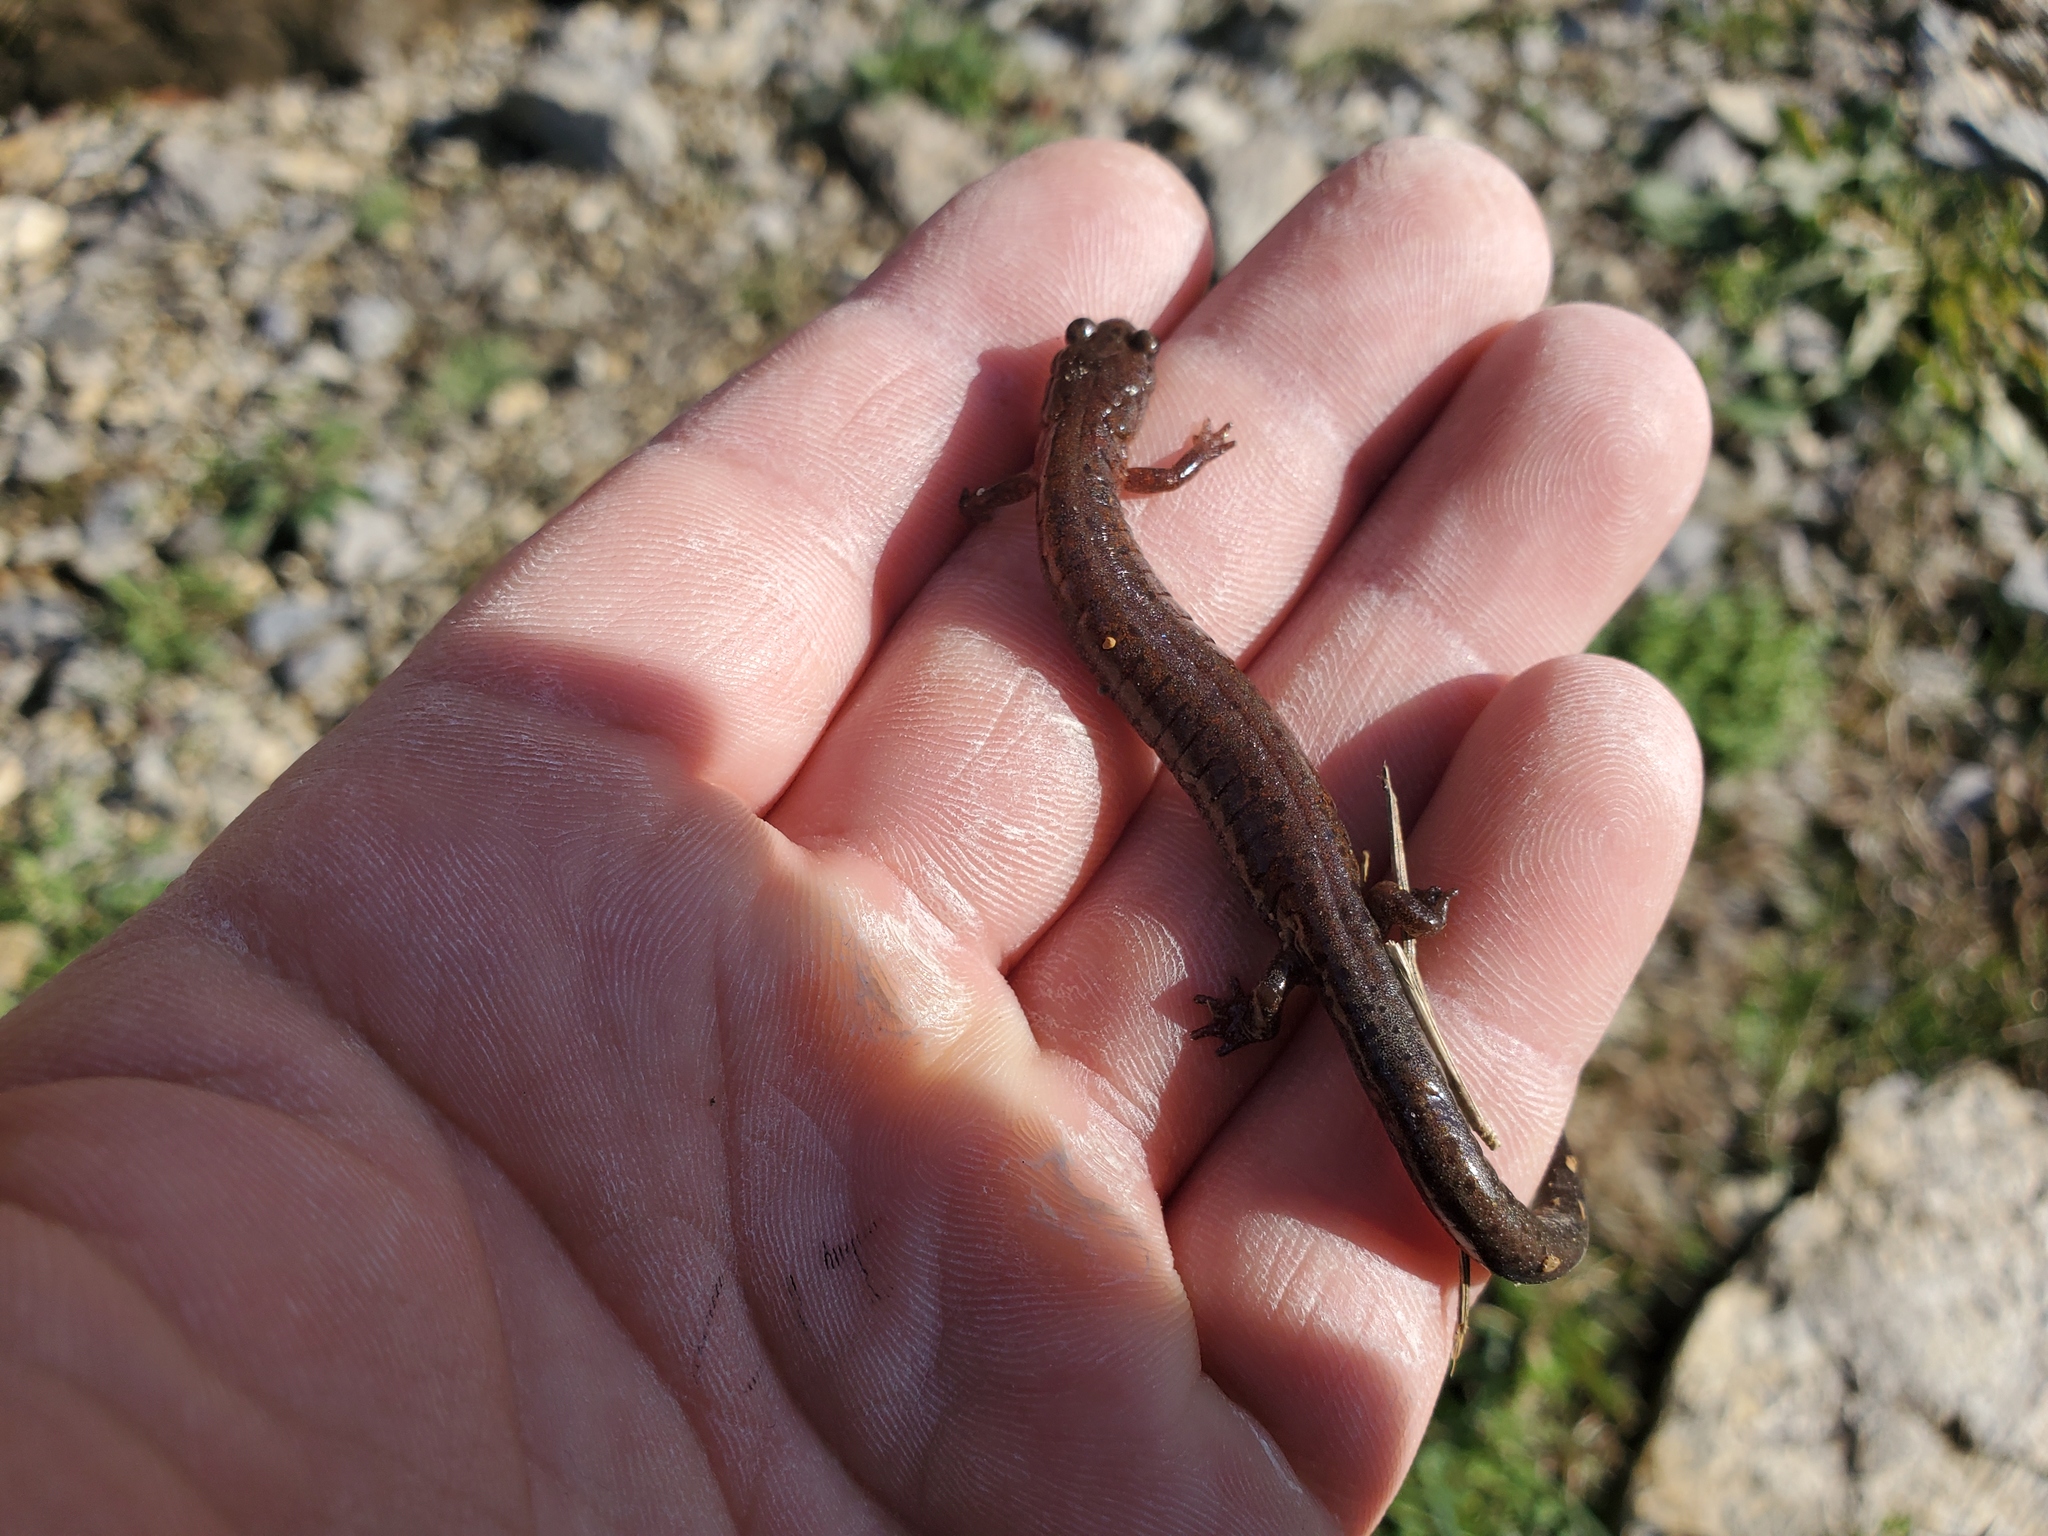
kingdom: Animalia
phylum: Chordata
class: Amphibia
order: Caudata
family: Plethodontidae
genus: Plethodon
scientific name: Plethodon dorsalis
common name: Northern zigzag salamander
